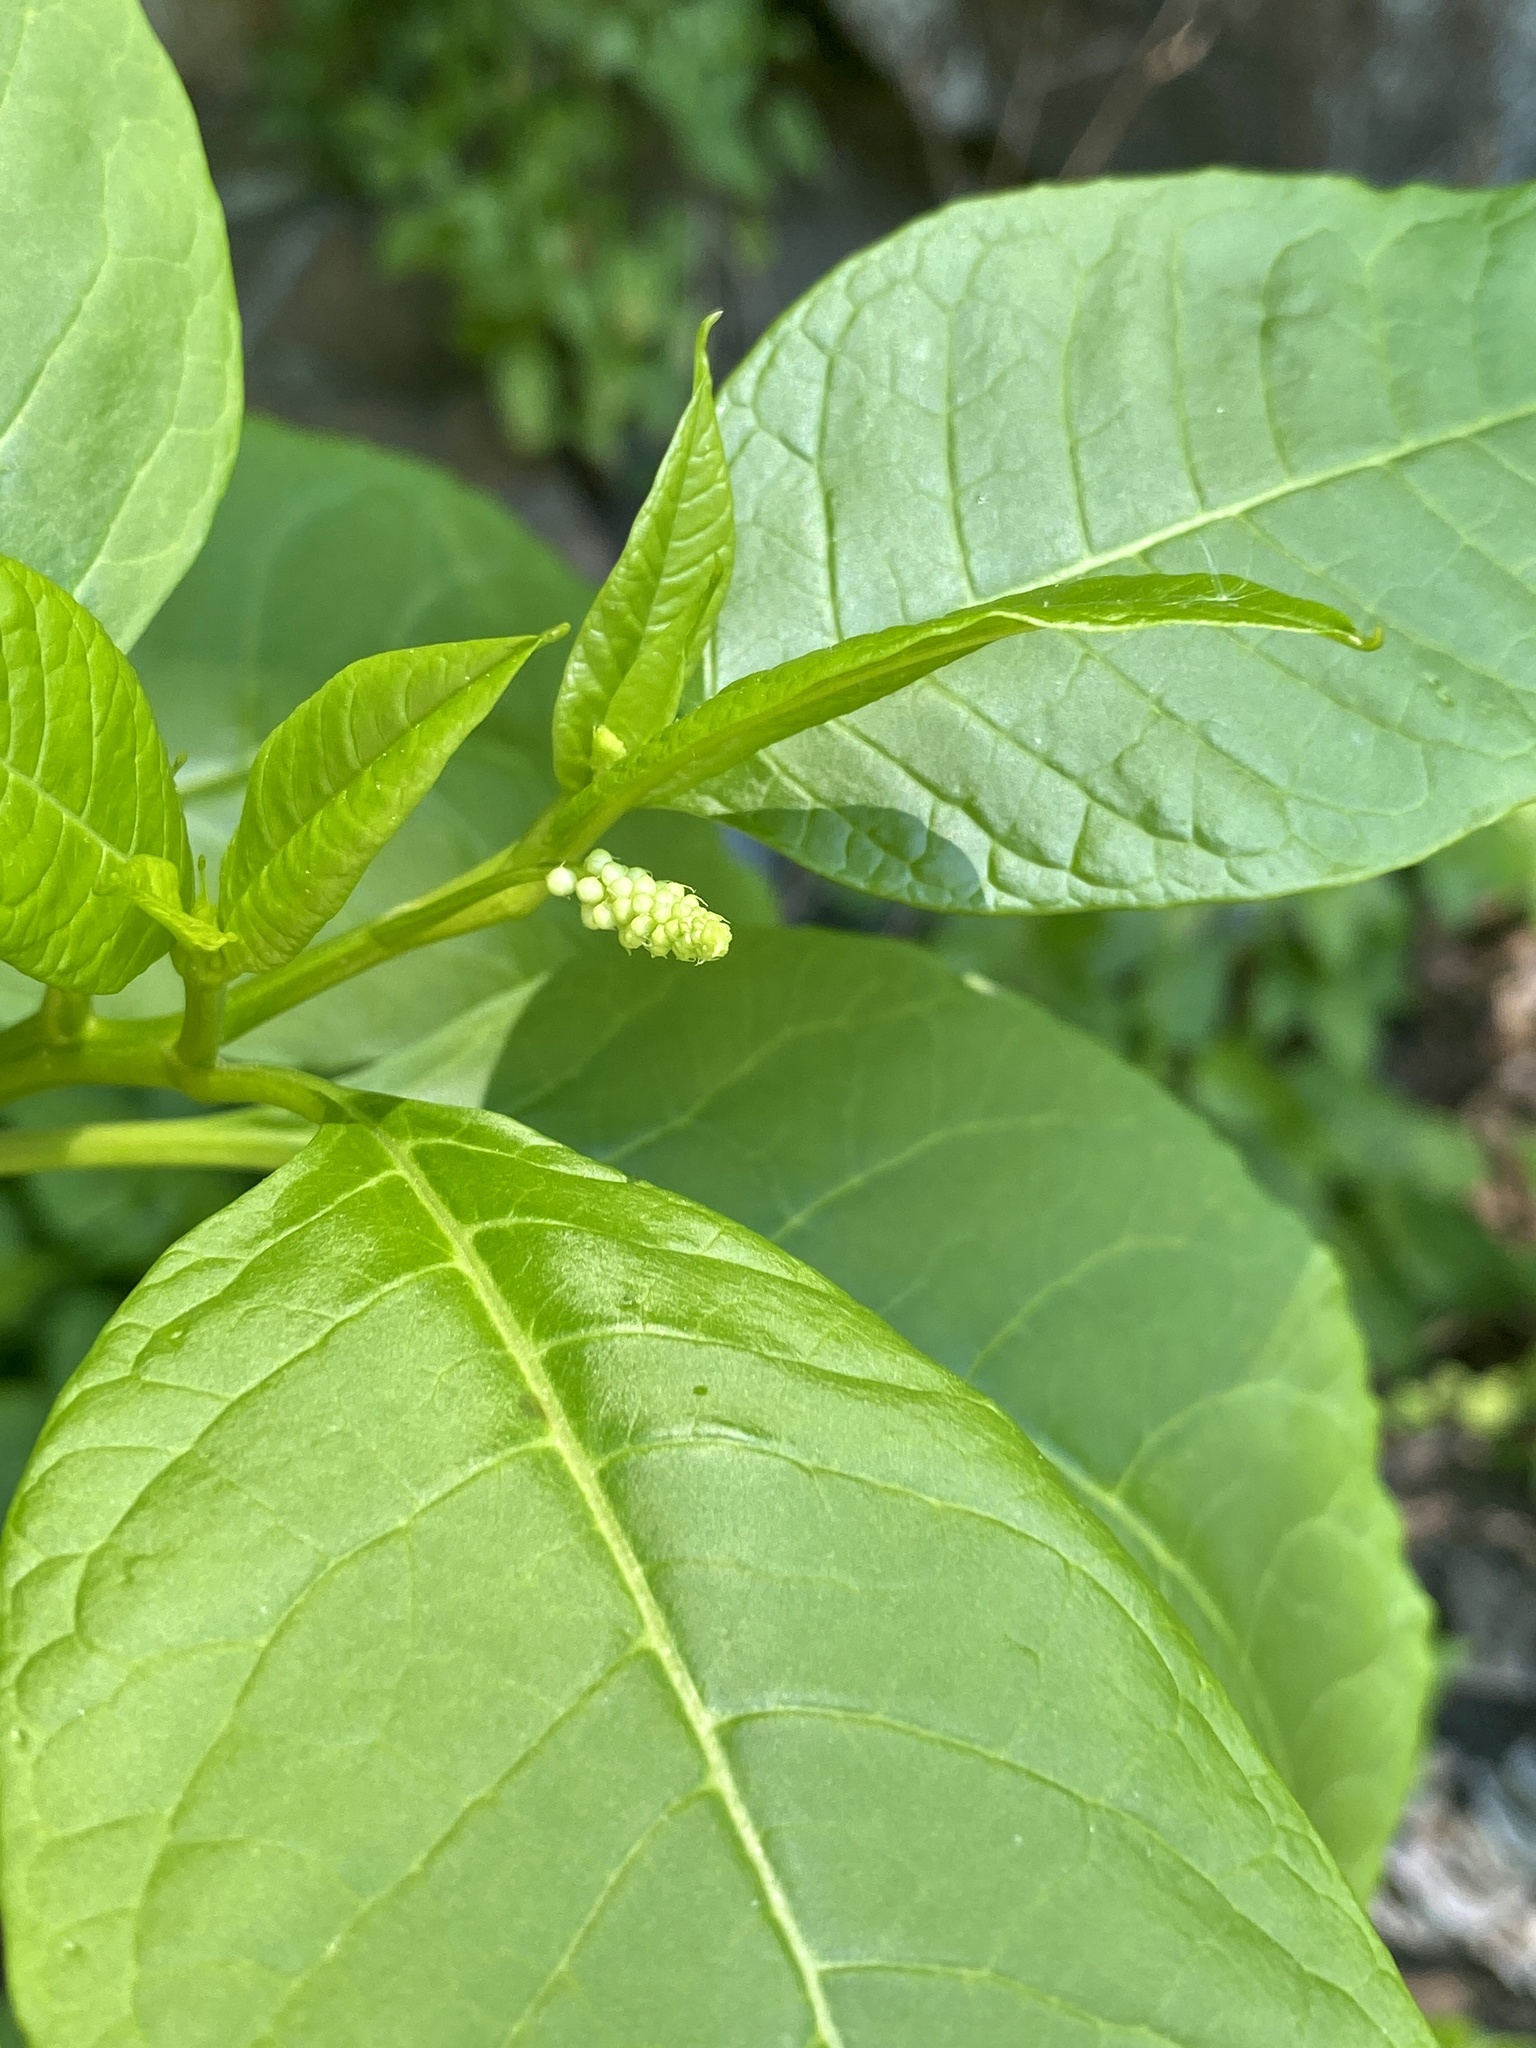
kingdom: Plantae
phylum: Tracheophyta
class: Magnoliopsida
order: Caryophyllales
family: Phytolaccaceae
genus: Phytolacca
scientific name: Phytolacca americana
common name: American pokeweed
